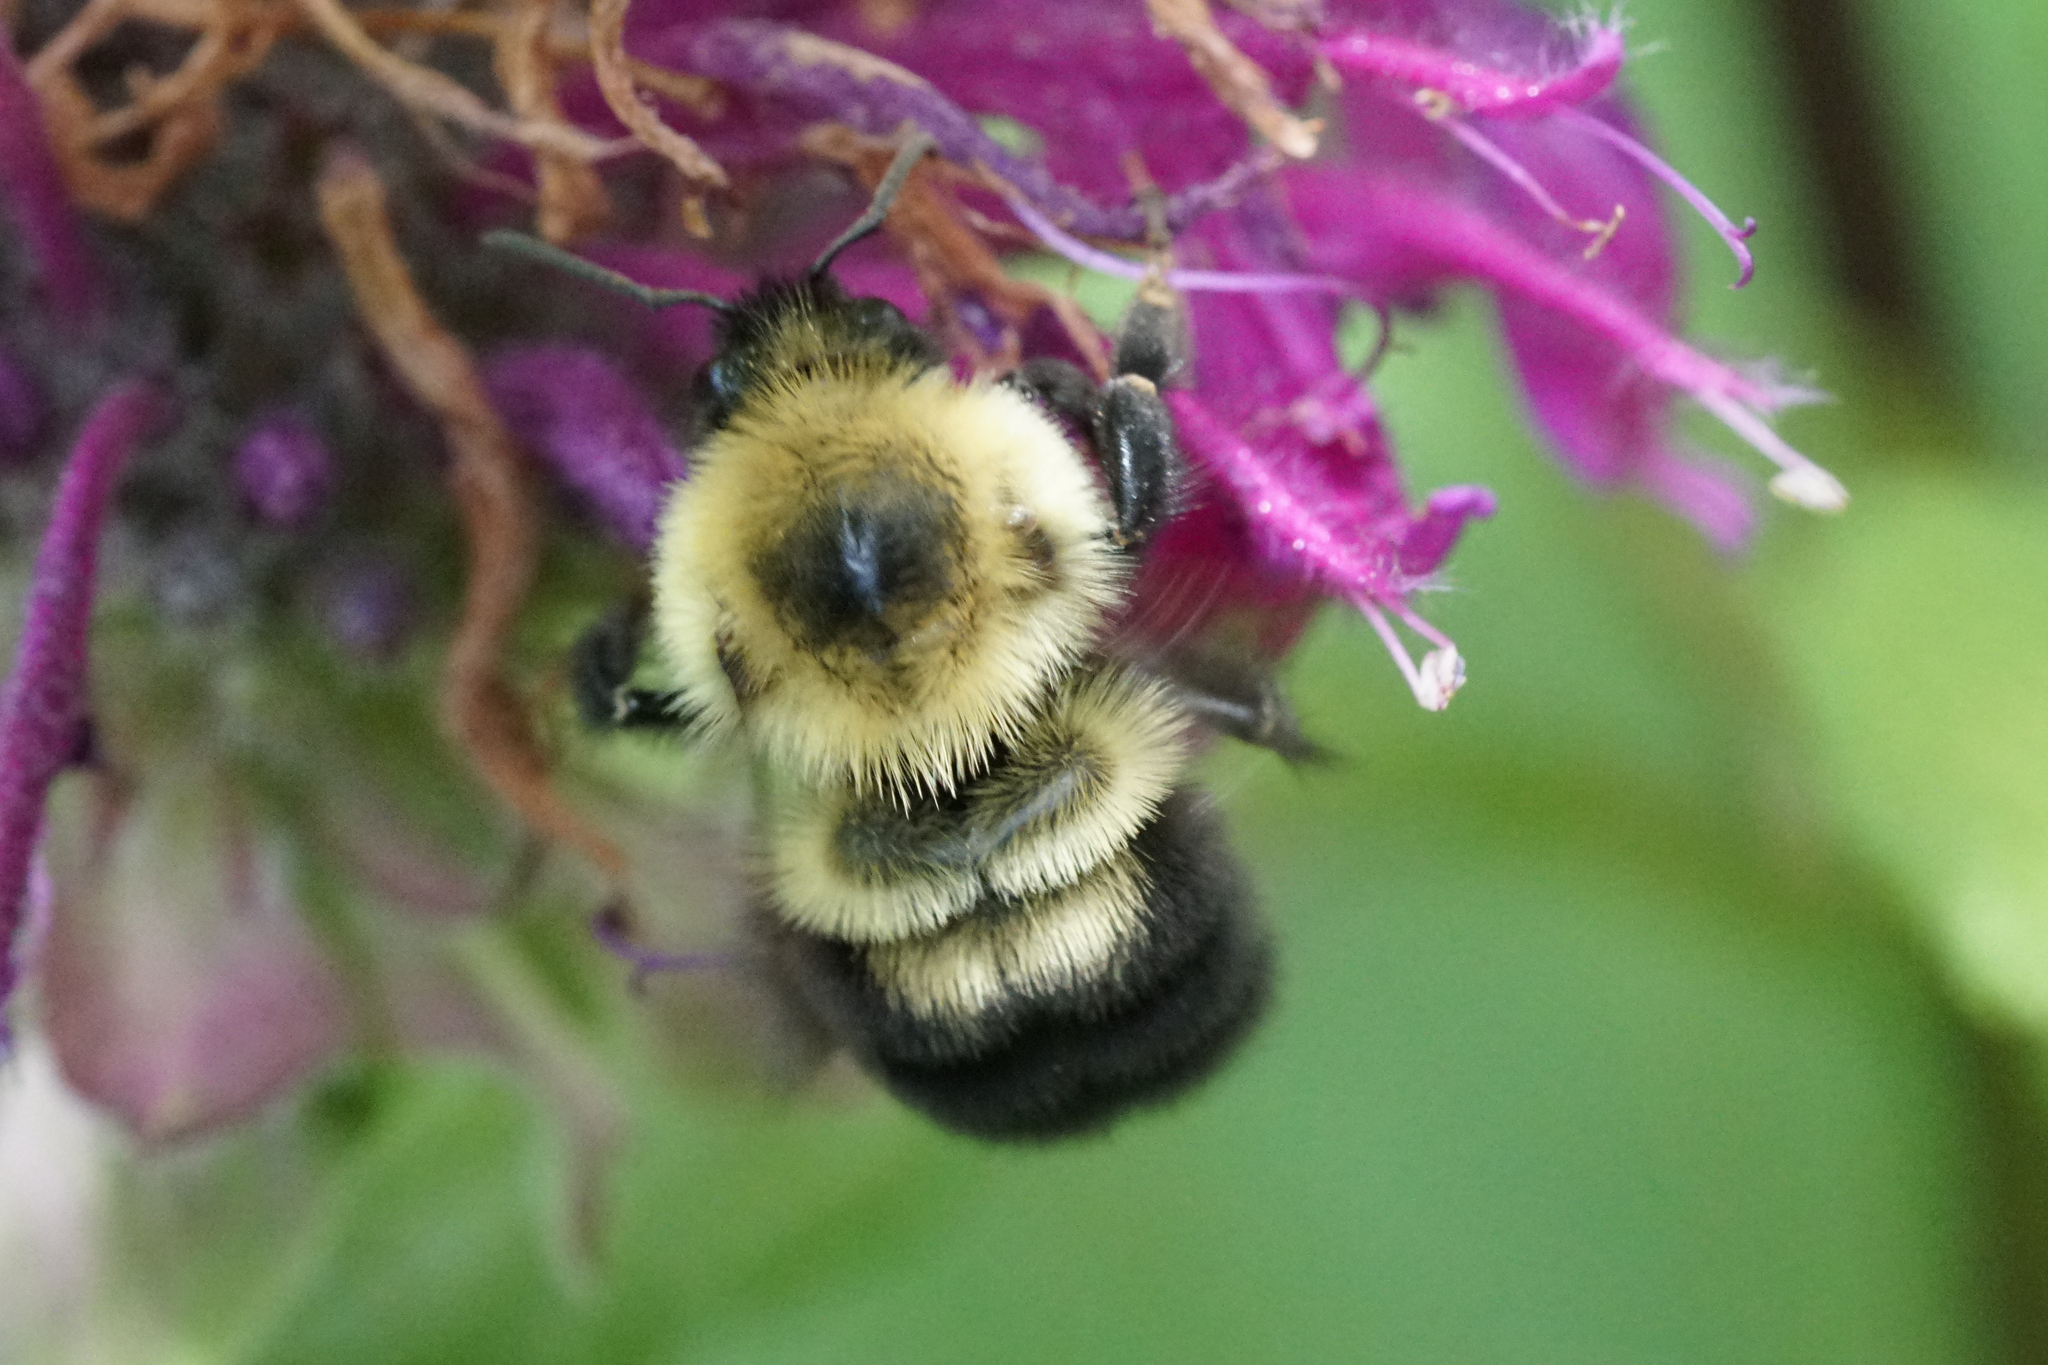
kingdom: Animalia
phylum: Arthropoda
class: Insecta
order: Hymenoptera
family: Apidae
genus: Bombus
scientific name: Bombus bimaculatus
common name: Two-spotted bumble bee
